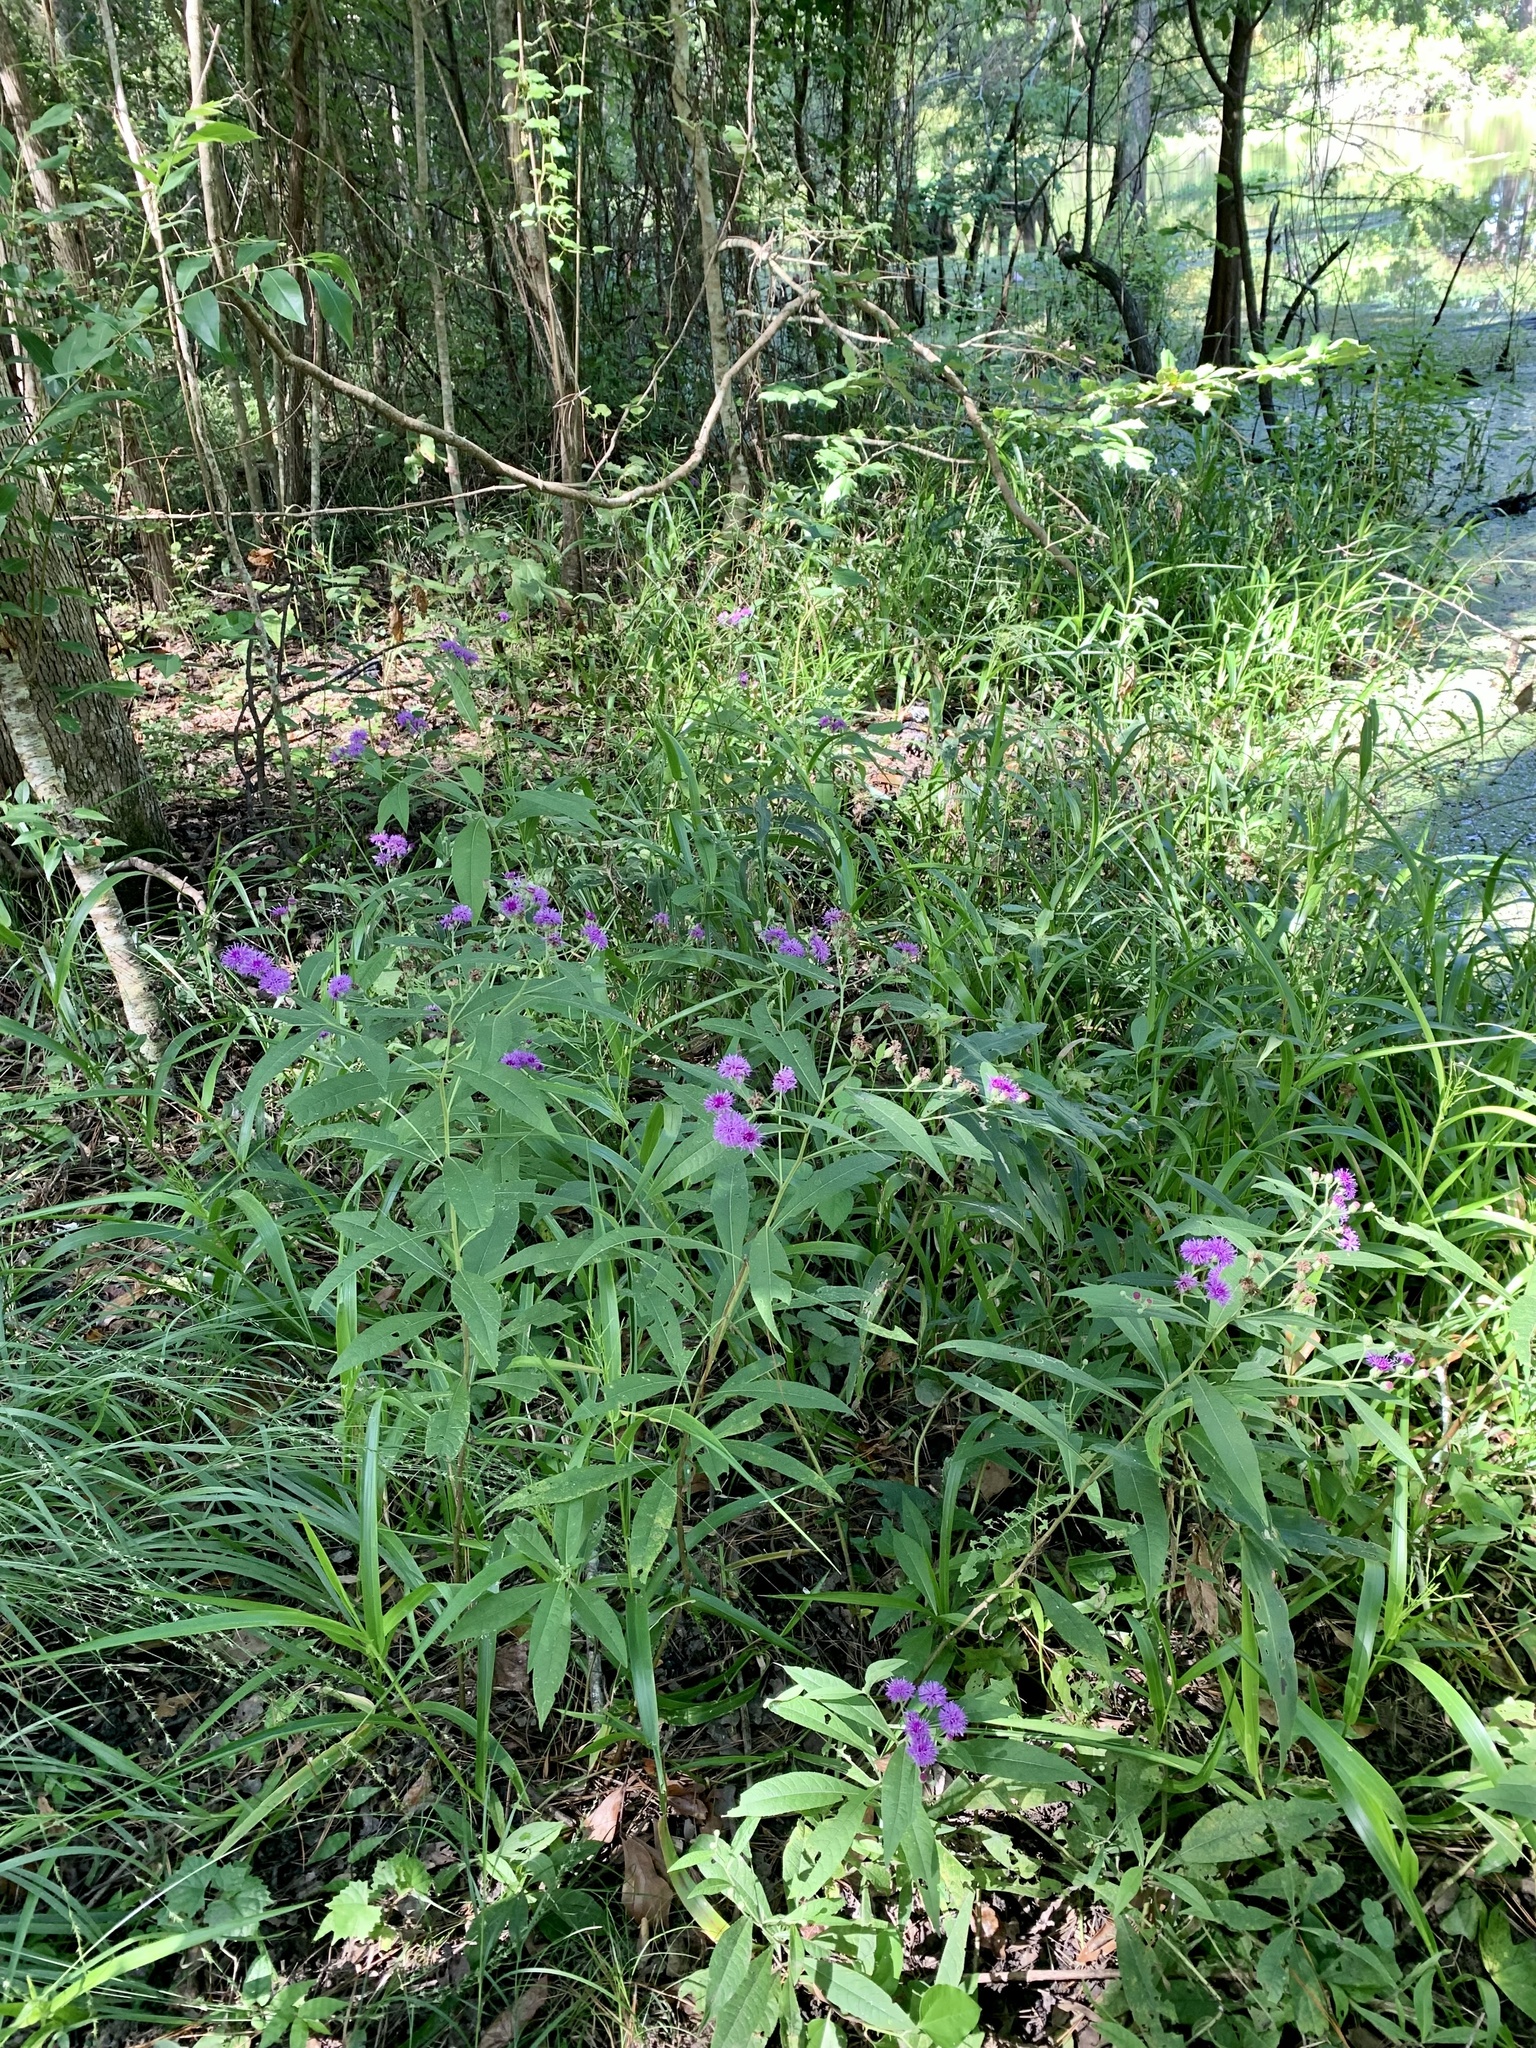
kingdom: Plantae
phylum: Tracheophyta
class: Magnoliopsida
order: Asterales
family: Asteraceae
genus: Vernonia
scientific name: Vernonia texana
